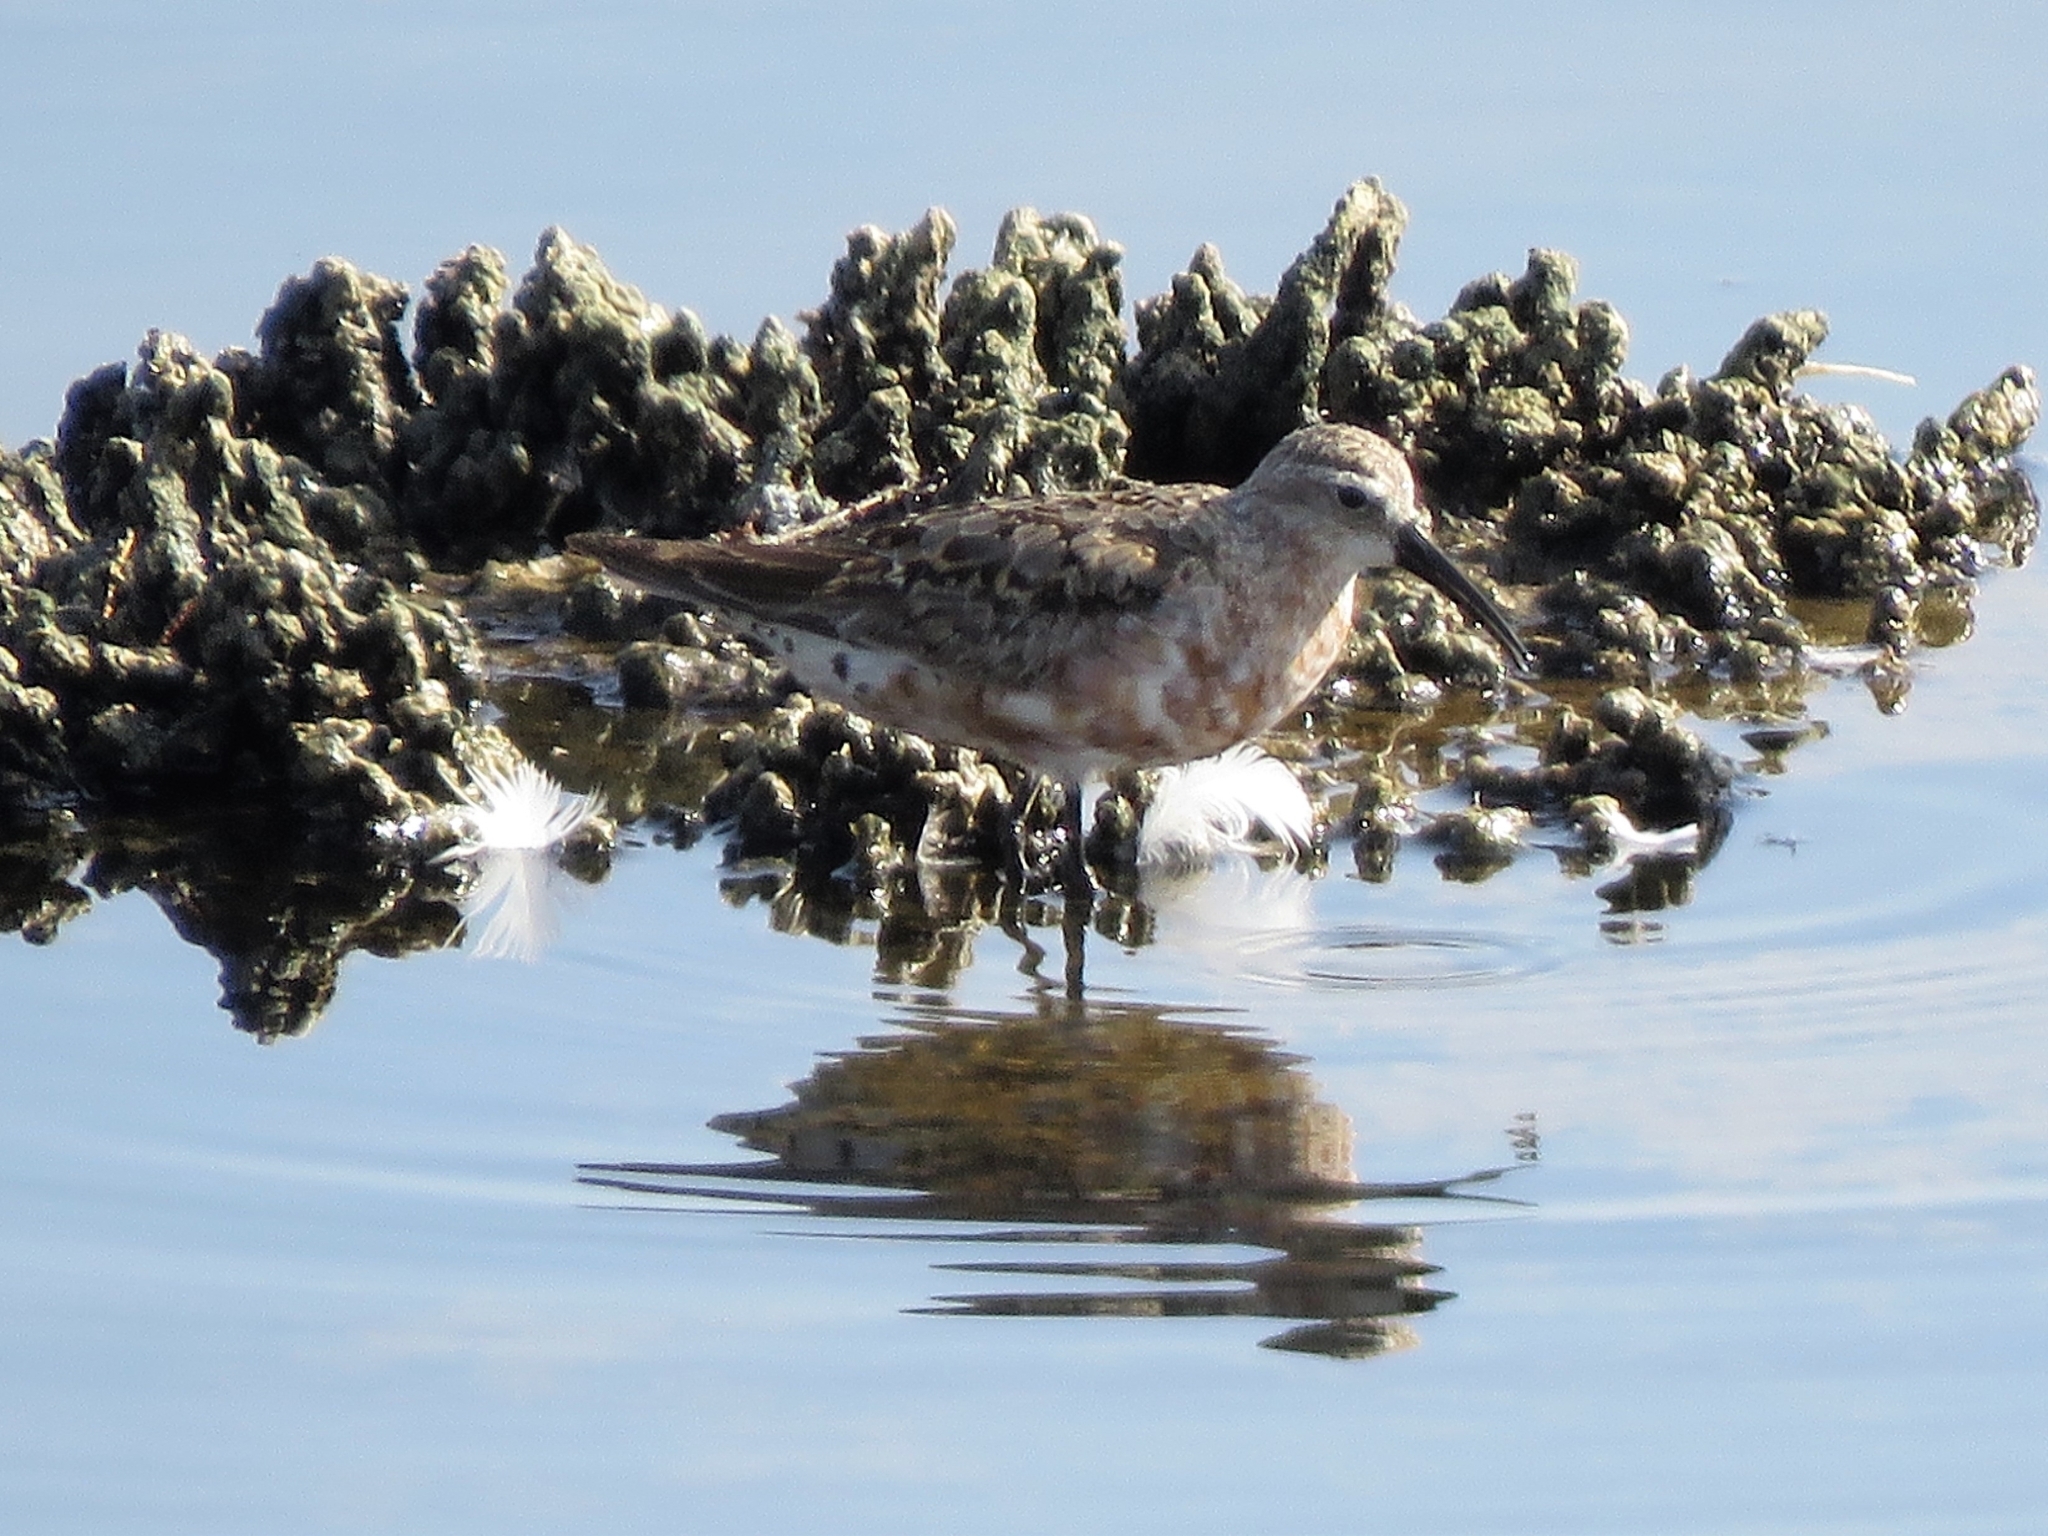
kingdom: Animalia
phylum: Chordata
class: Aves
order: Charadriiformes
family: Scolopacidae
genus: Calidris
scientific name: Calidris ferruginea
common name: Curlew sandpiper
